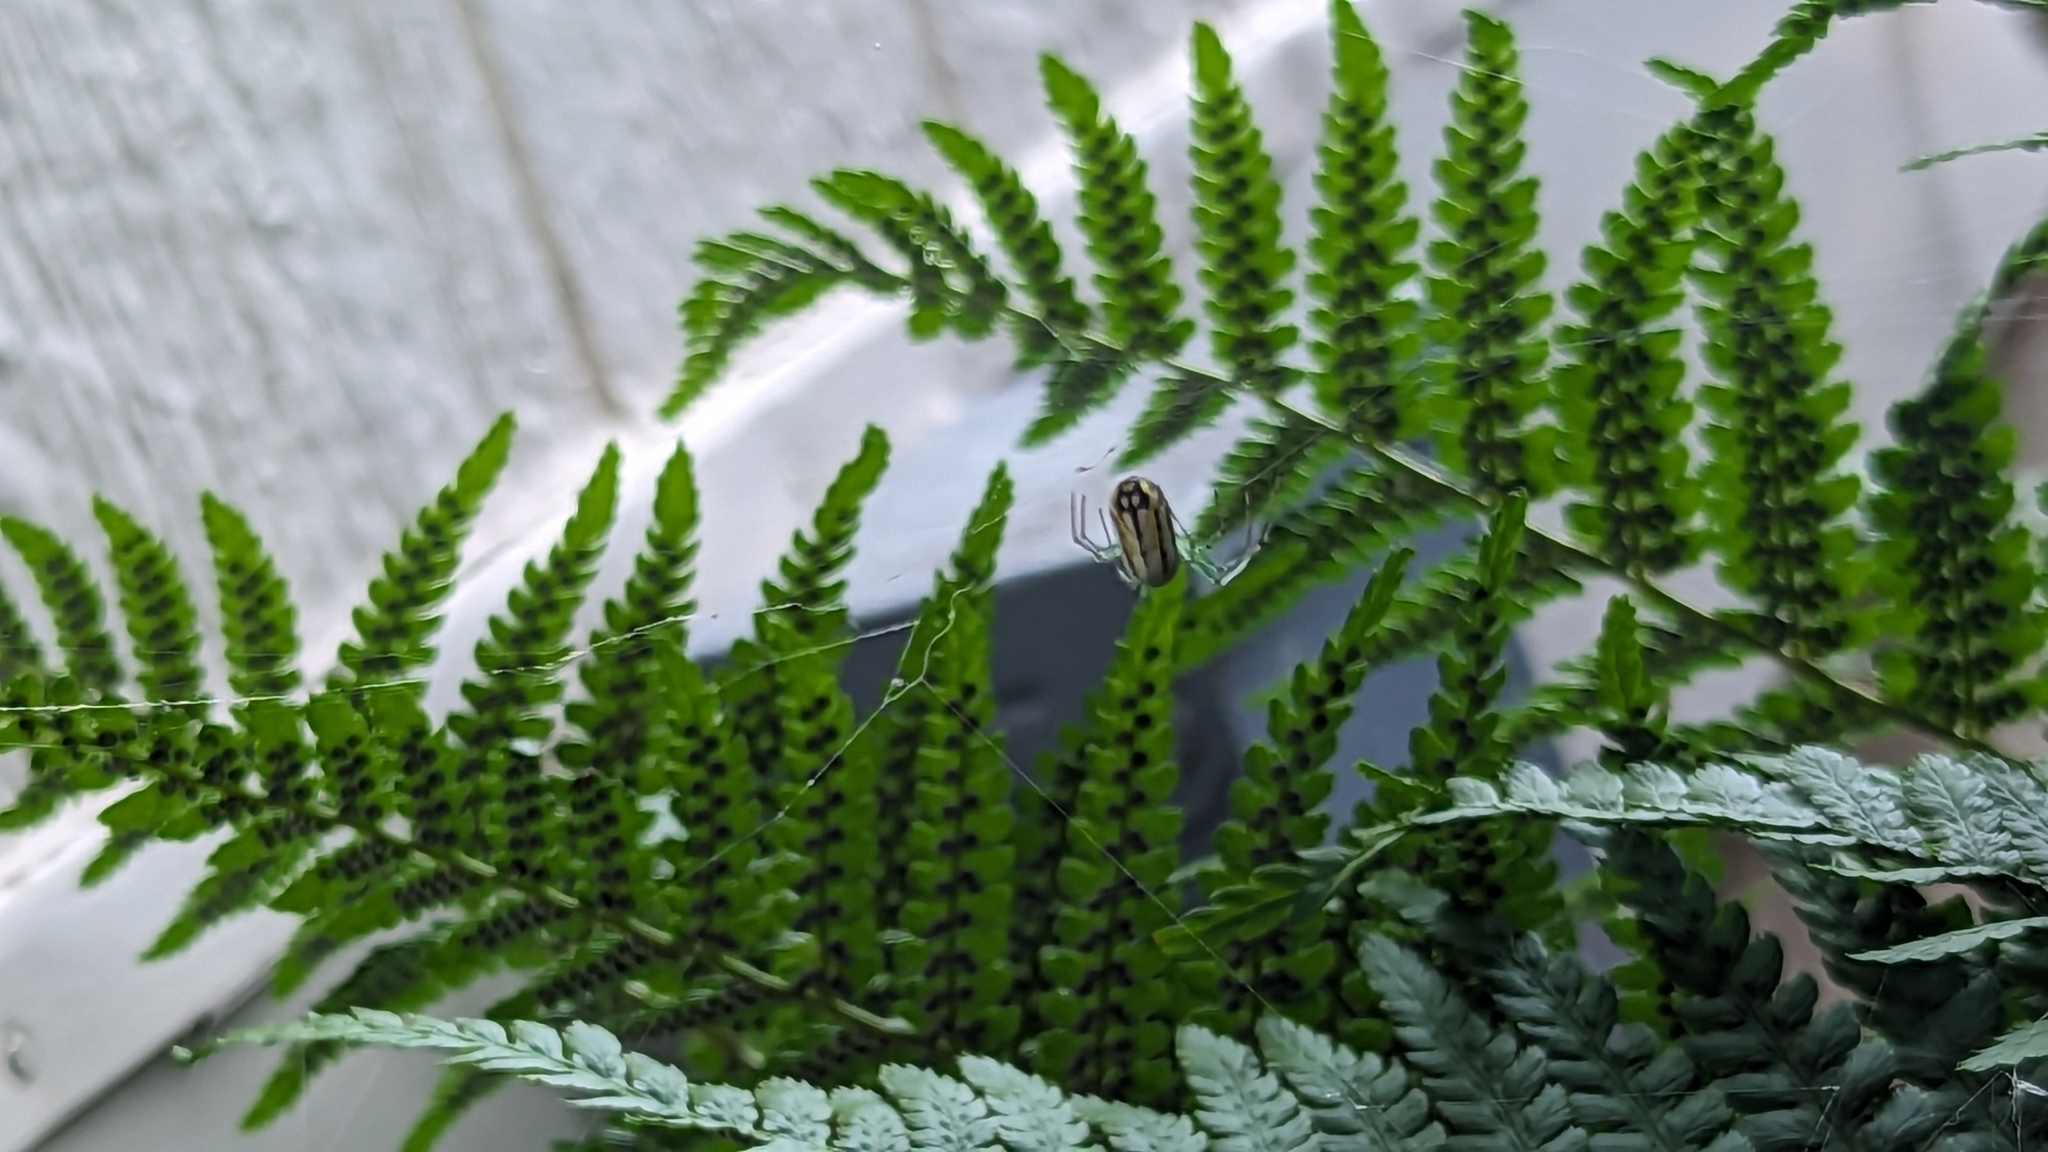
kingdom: Animalia
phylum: Arthropoda
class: Arachnida
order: Araneae
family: Tetragnathidae
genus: Leucauge
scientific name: Leucauge venusta
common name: Longjawed orb weavers
